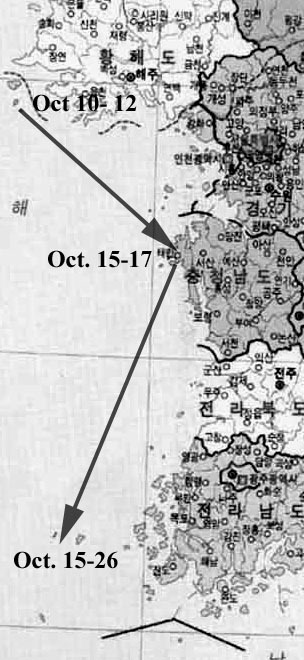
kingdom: Animalia
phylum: Chordata
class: Aves
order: Accipitriformes
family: Accipitridae
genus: Aquila
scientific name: Aquila clanga
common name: Greater spotted eagle
